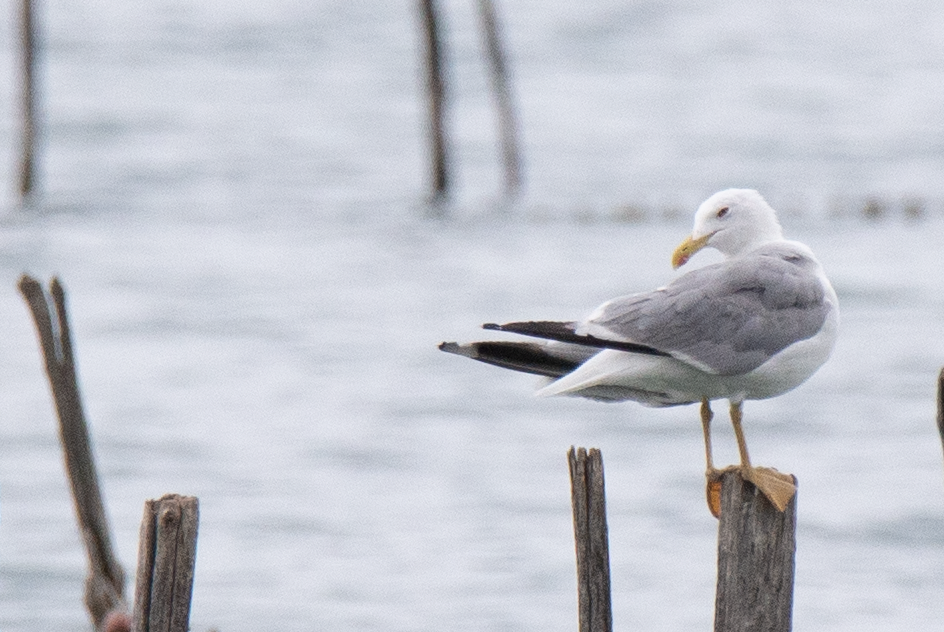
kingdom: Animalia
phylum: Chordata
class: Aves
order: Charadriiformes
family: Laridae
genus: Larus
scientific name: Larus michahellis
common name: Yellow-legged gull
